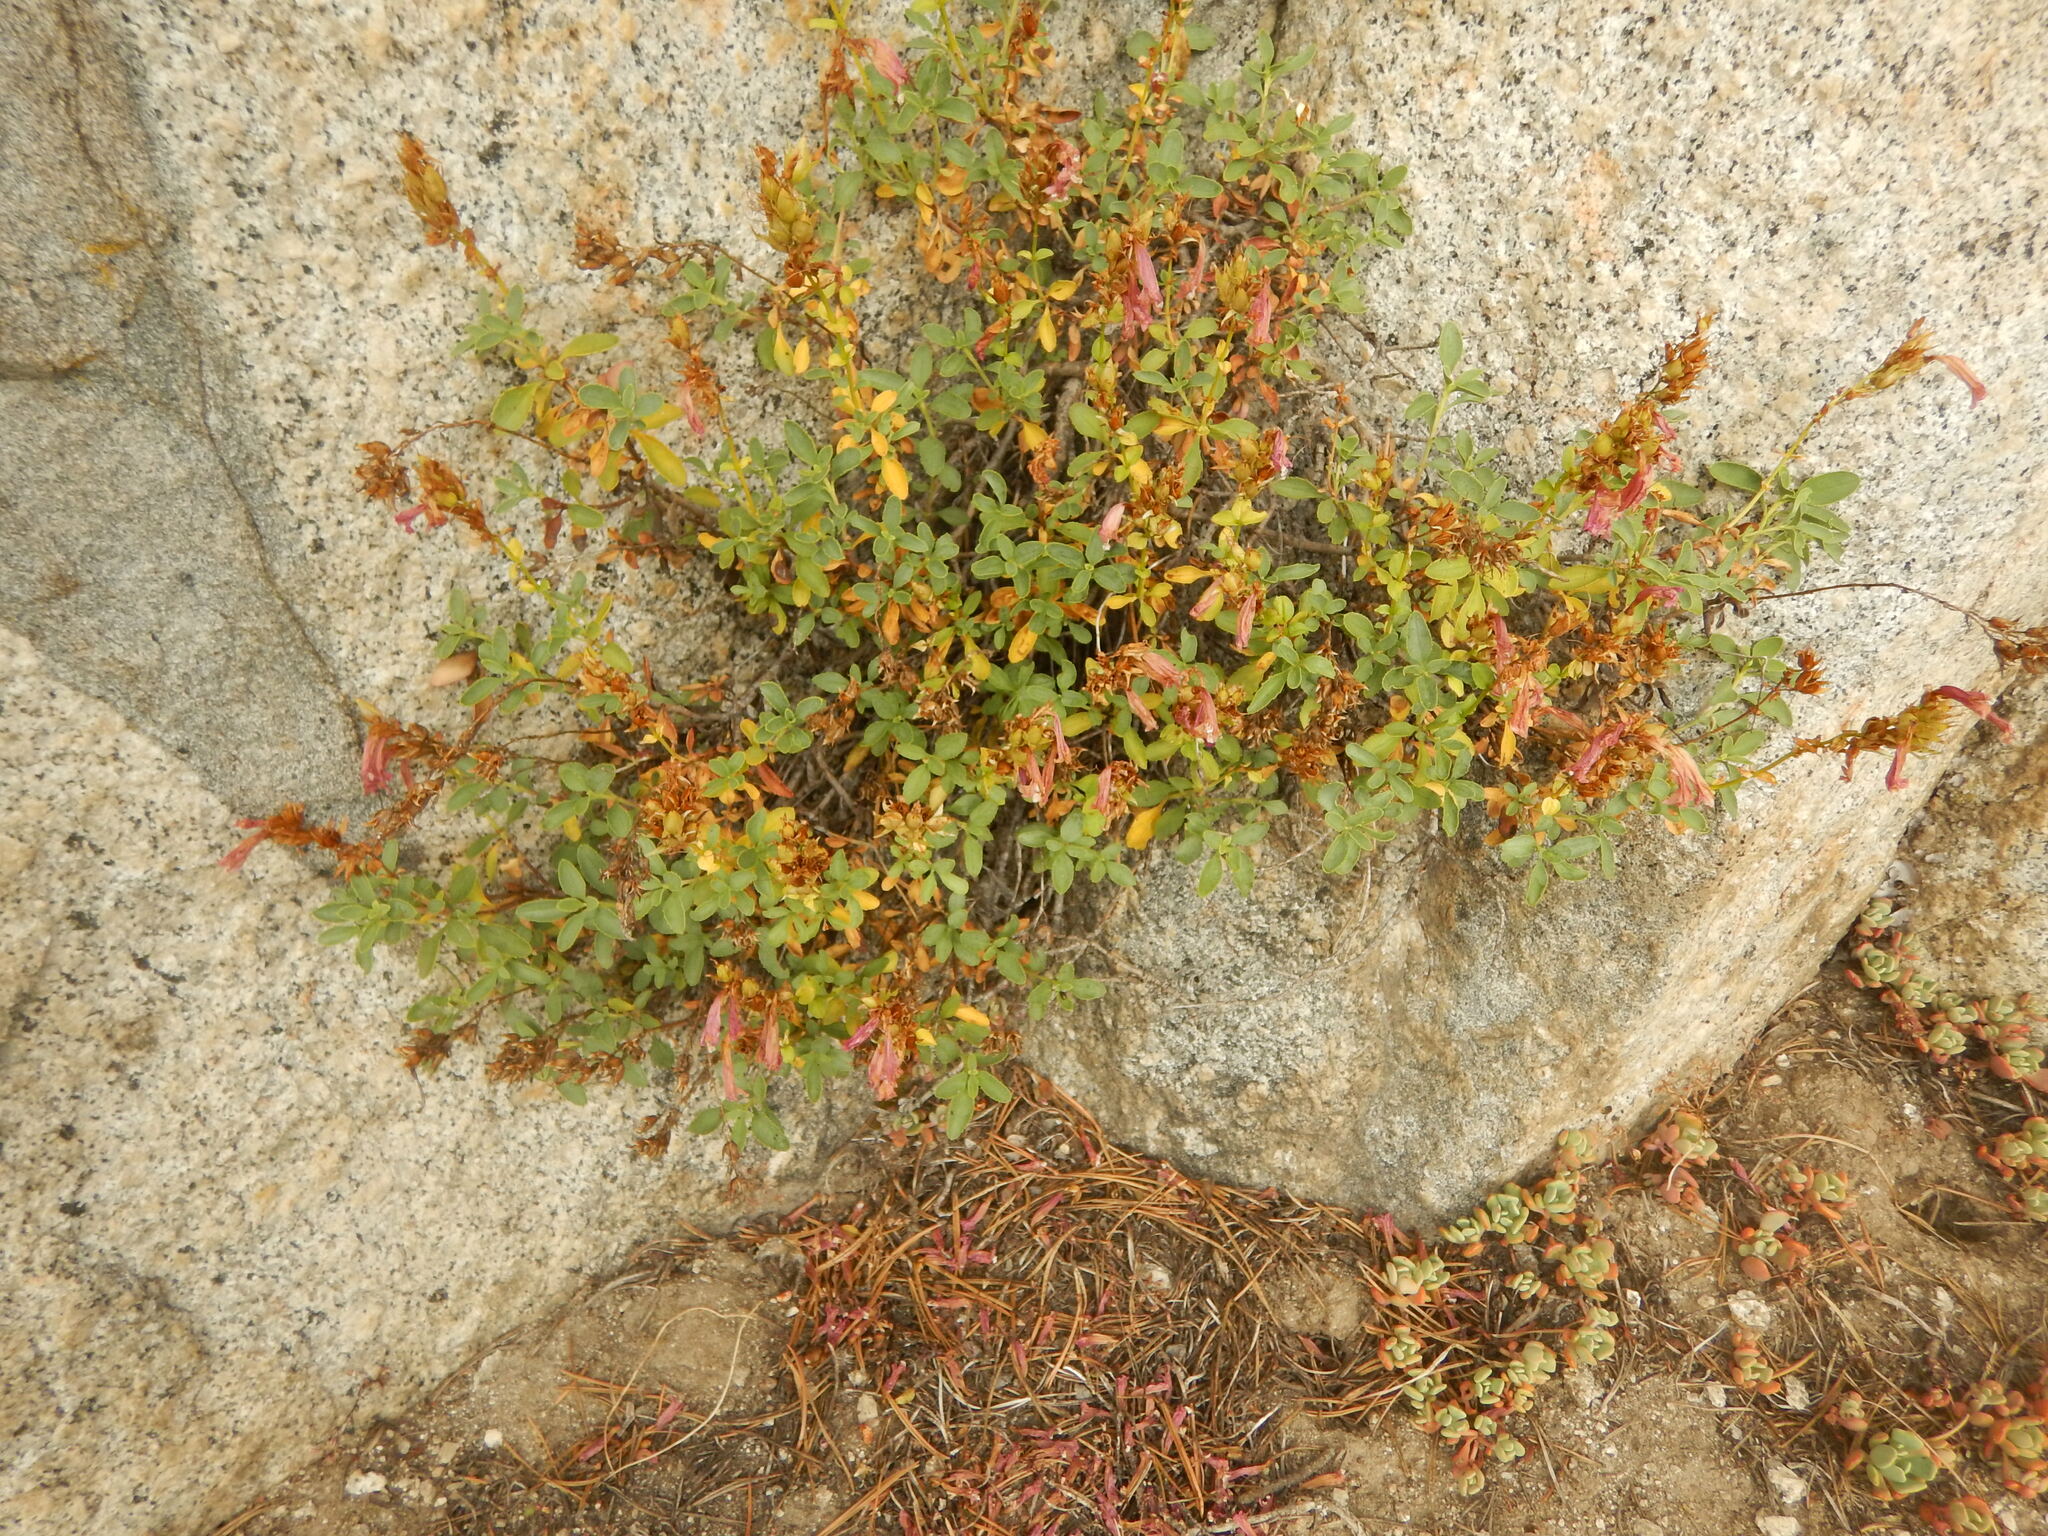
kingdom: Plantae
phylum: Tracheophyta
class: Magnoliopsida
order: Lamiales
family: Plantaginaceae
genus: Penstemon
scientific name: Penstemon newberryi
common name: Mountain-pride
